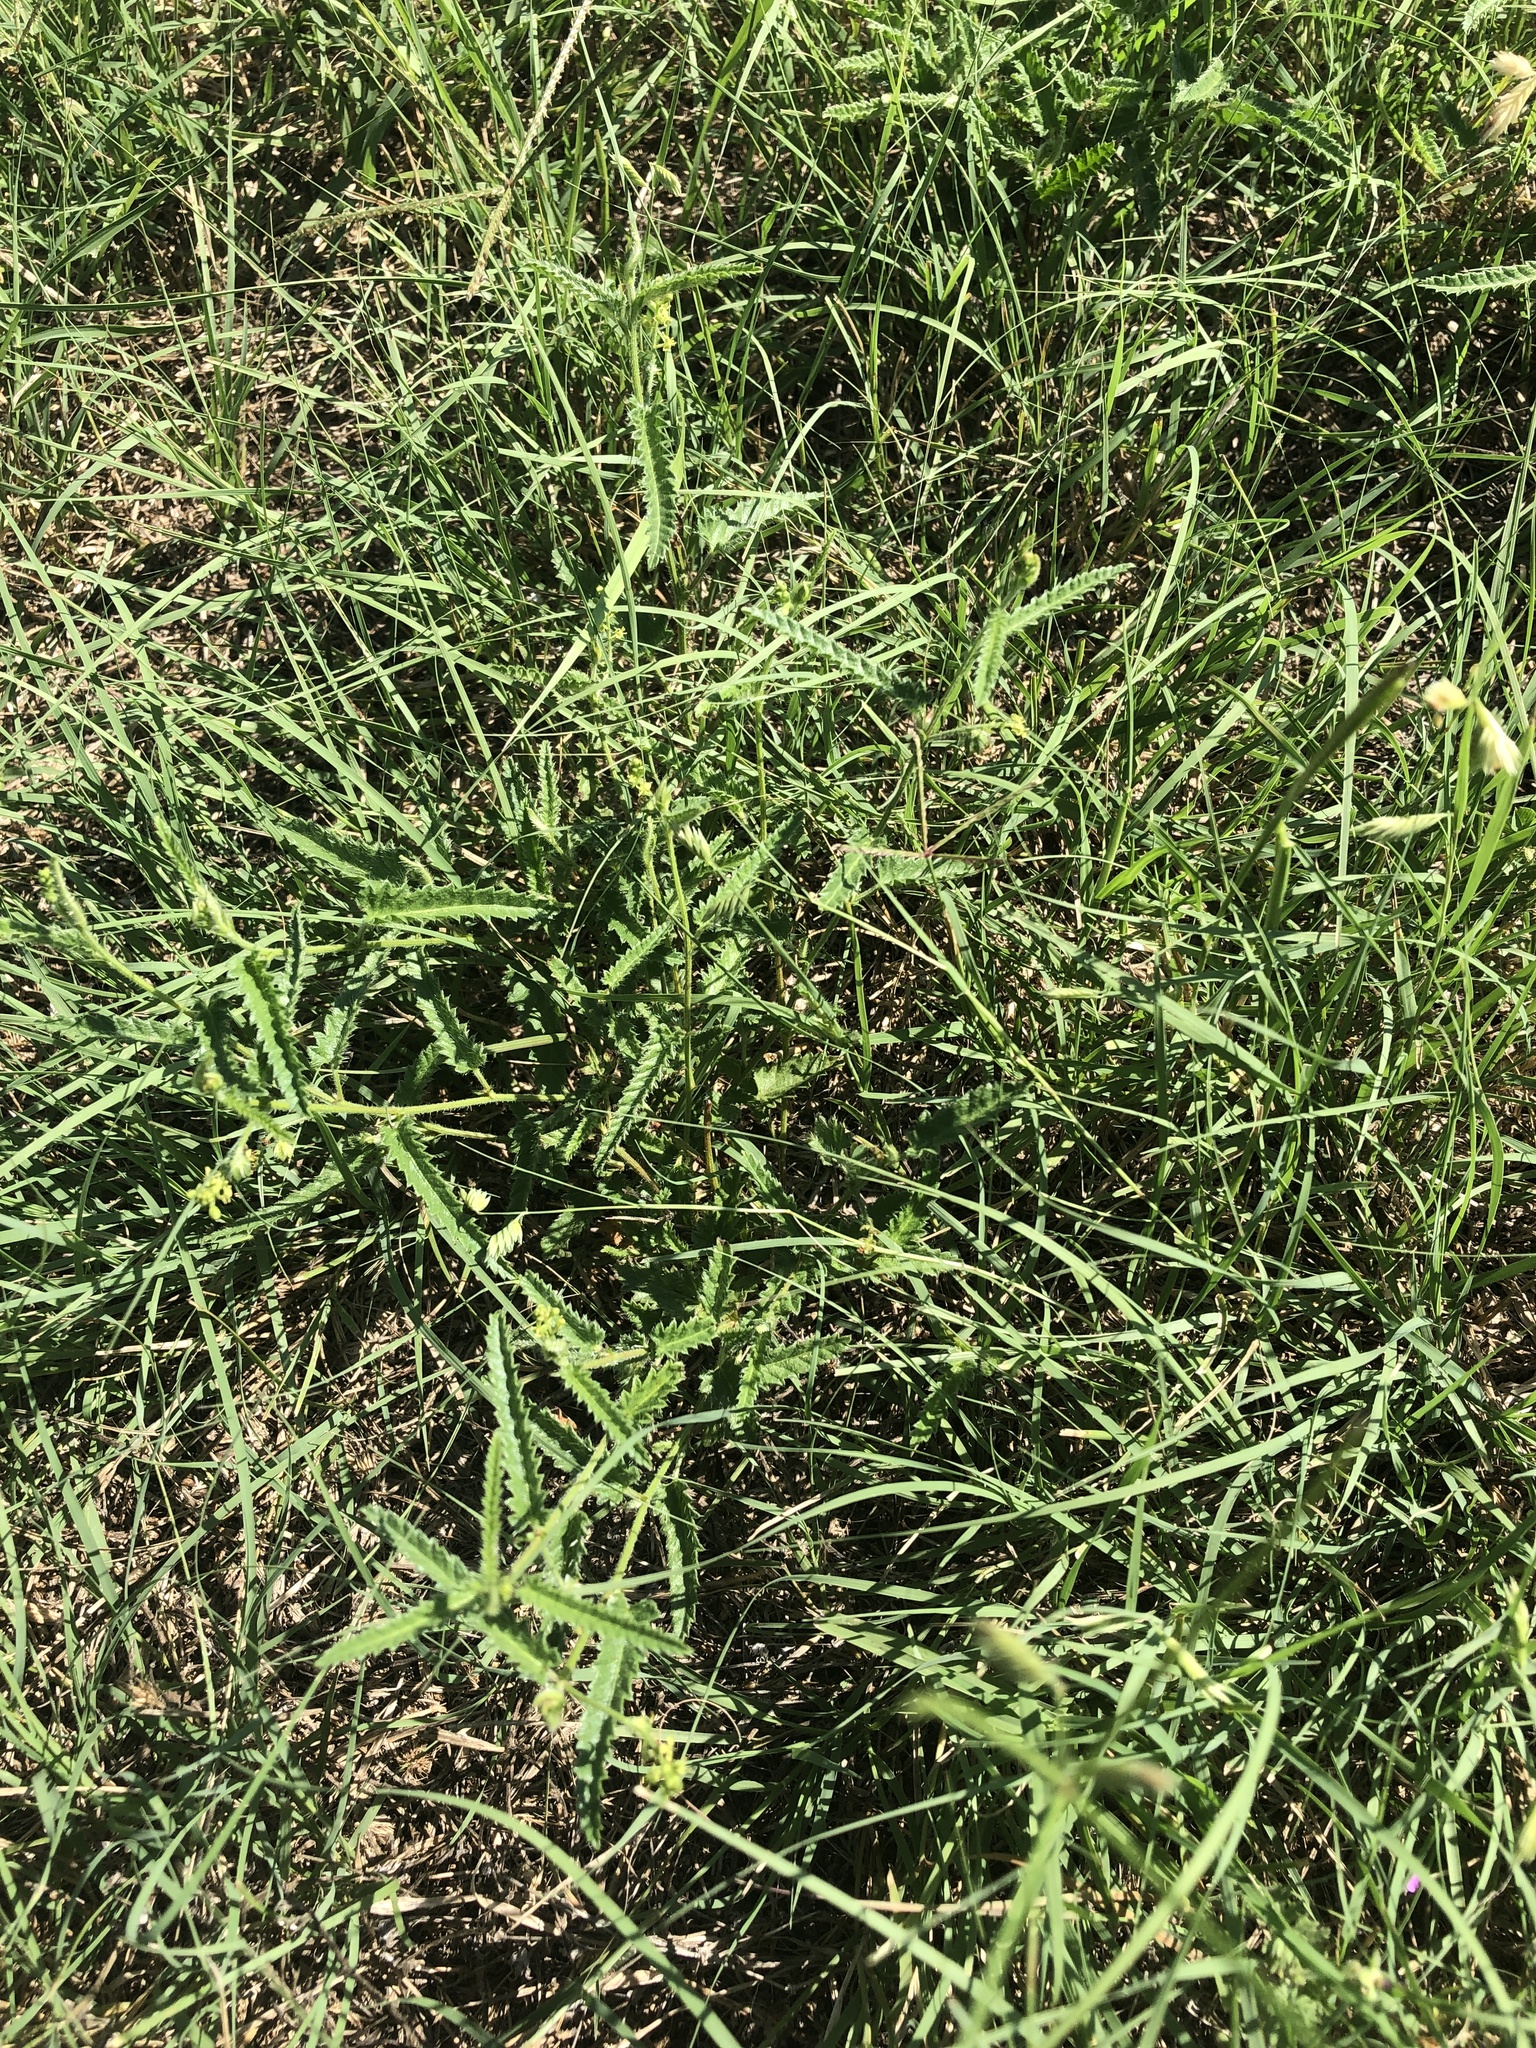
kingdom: Plantae
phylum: Tracheophyta
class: Magnoliopsida
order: Malpighiales
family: Euphorbiaceae
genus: Tragia
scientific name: Tragia ramosa
